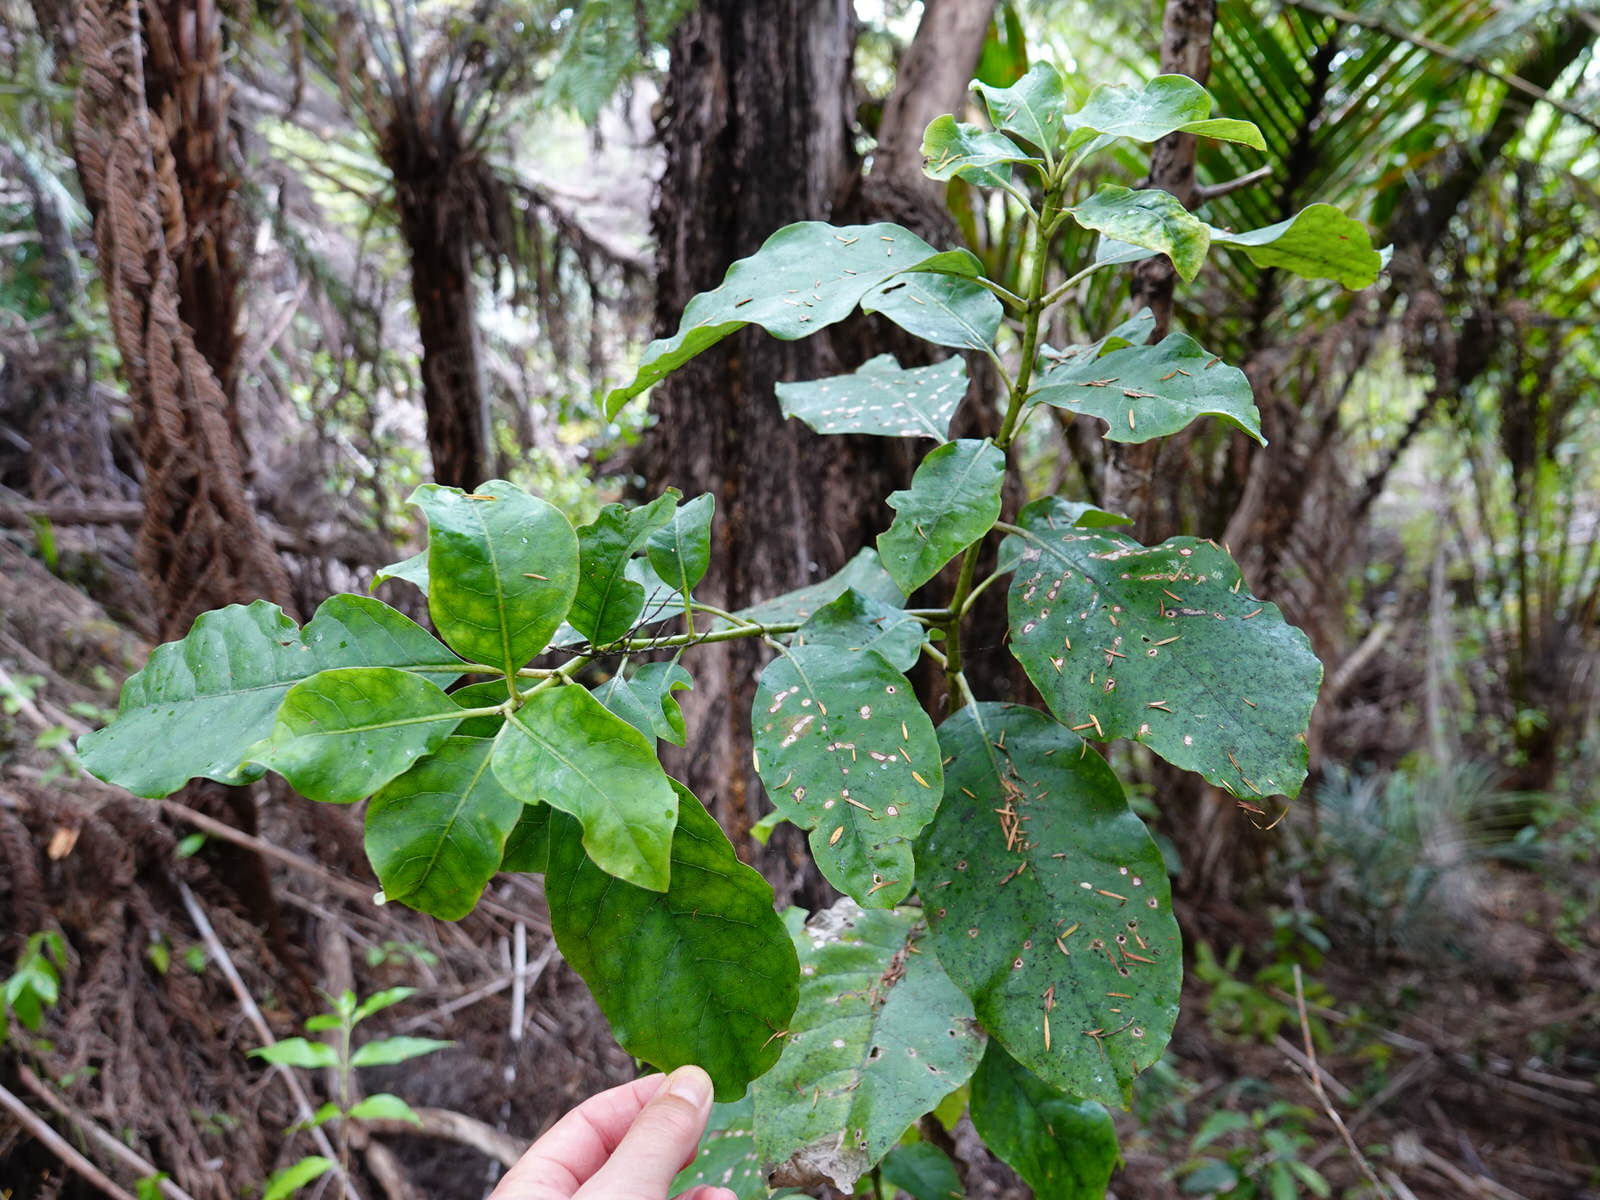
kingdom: Plantae
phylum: Tracheophyta
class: Magnoliopsida
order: Gentianales
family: Rubiaceae
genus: Coprosma
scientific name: Coprosma autumnalis
